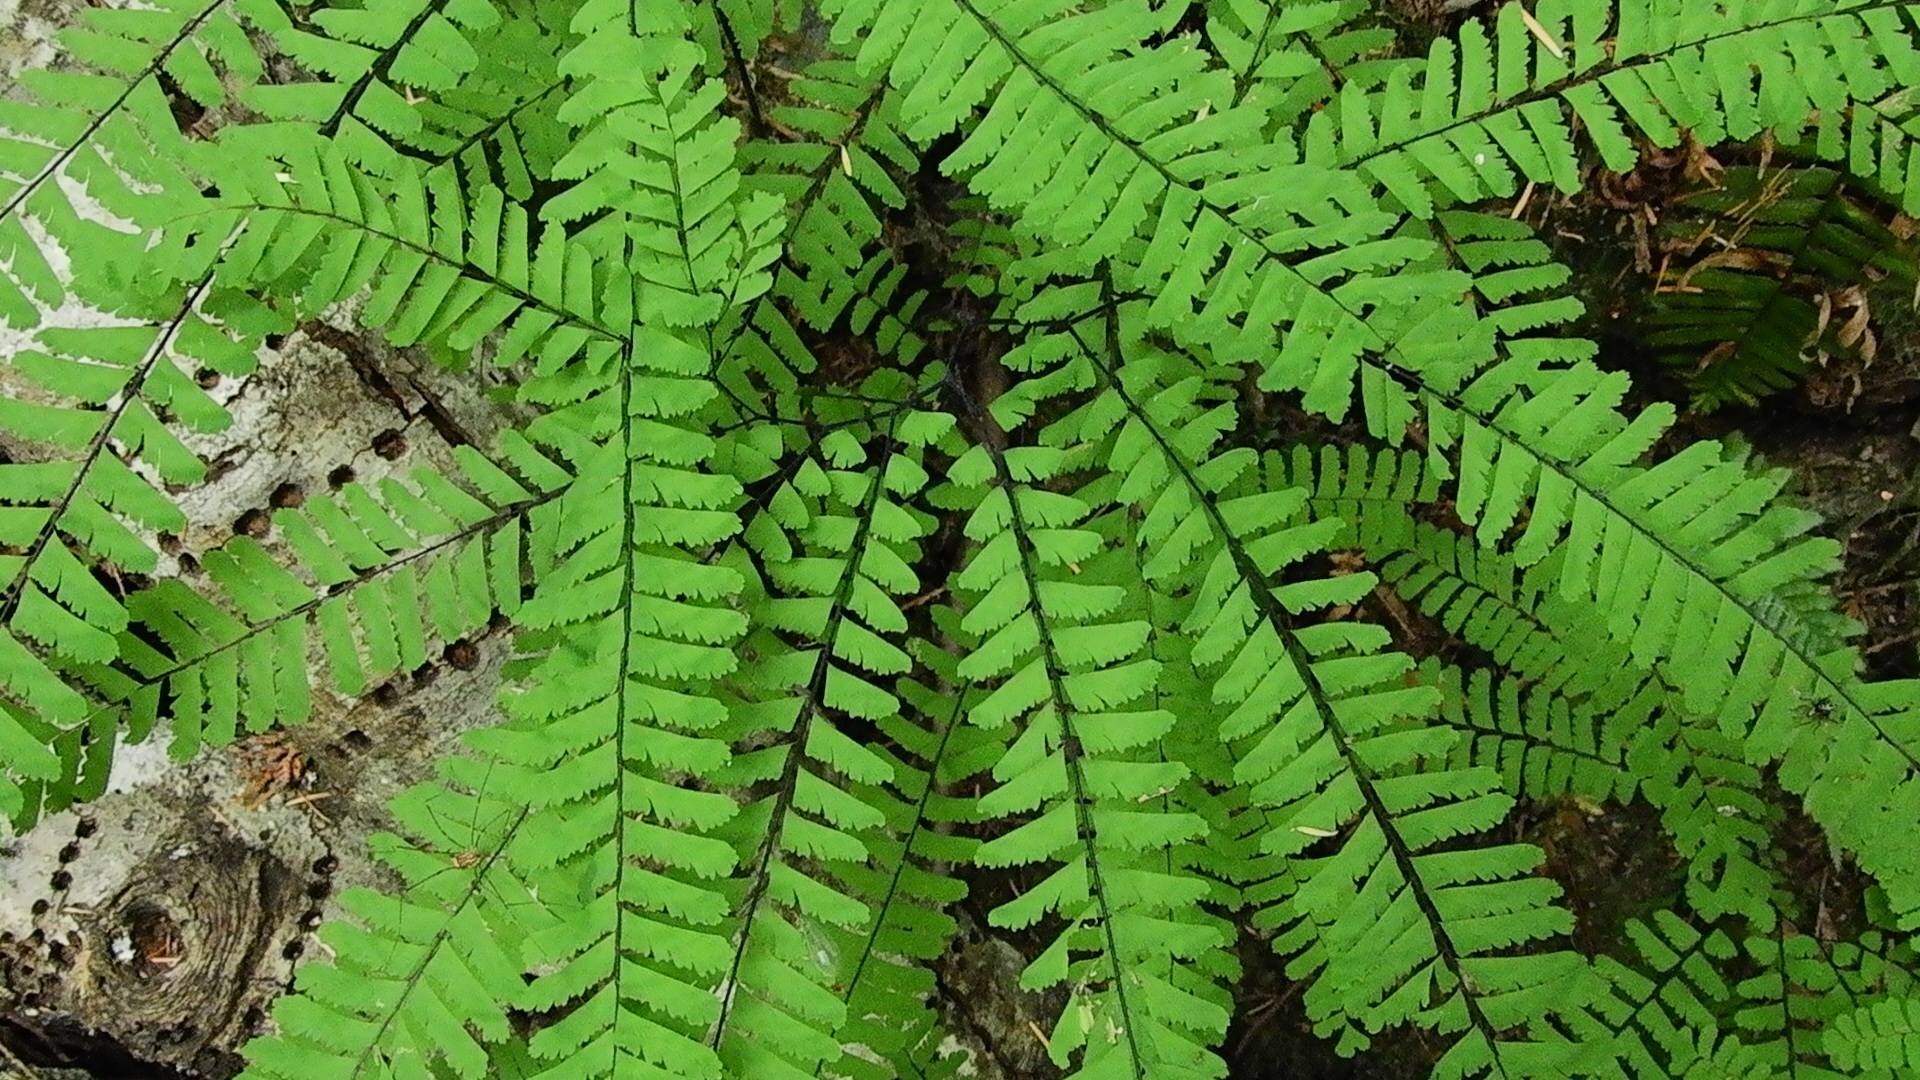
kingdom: Plantae
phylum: Tracheophyta
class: Polypodiopsida
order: Polypodiales
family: Pteridaceae
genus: Adiantum
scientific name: Adiantum aleuticum
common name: Aleutian maidenhair fern
